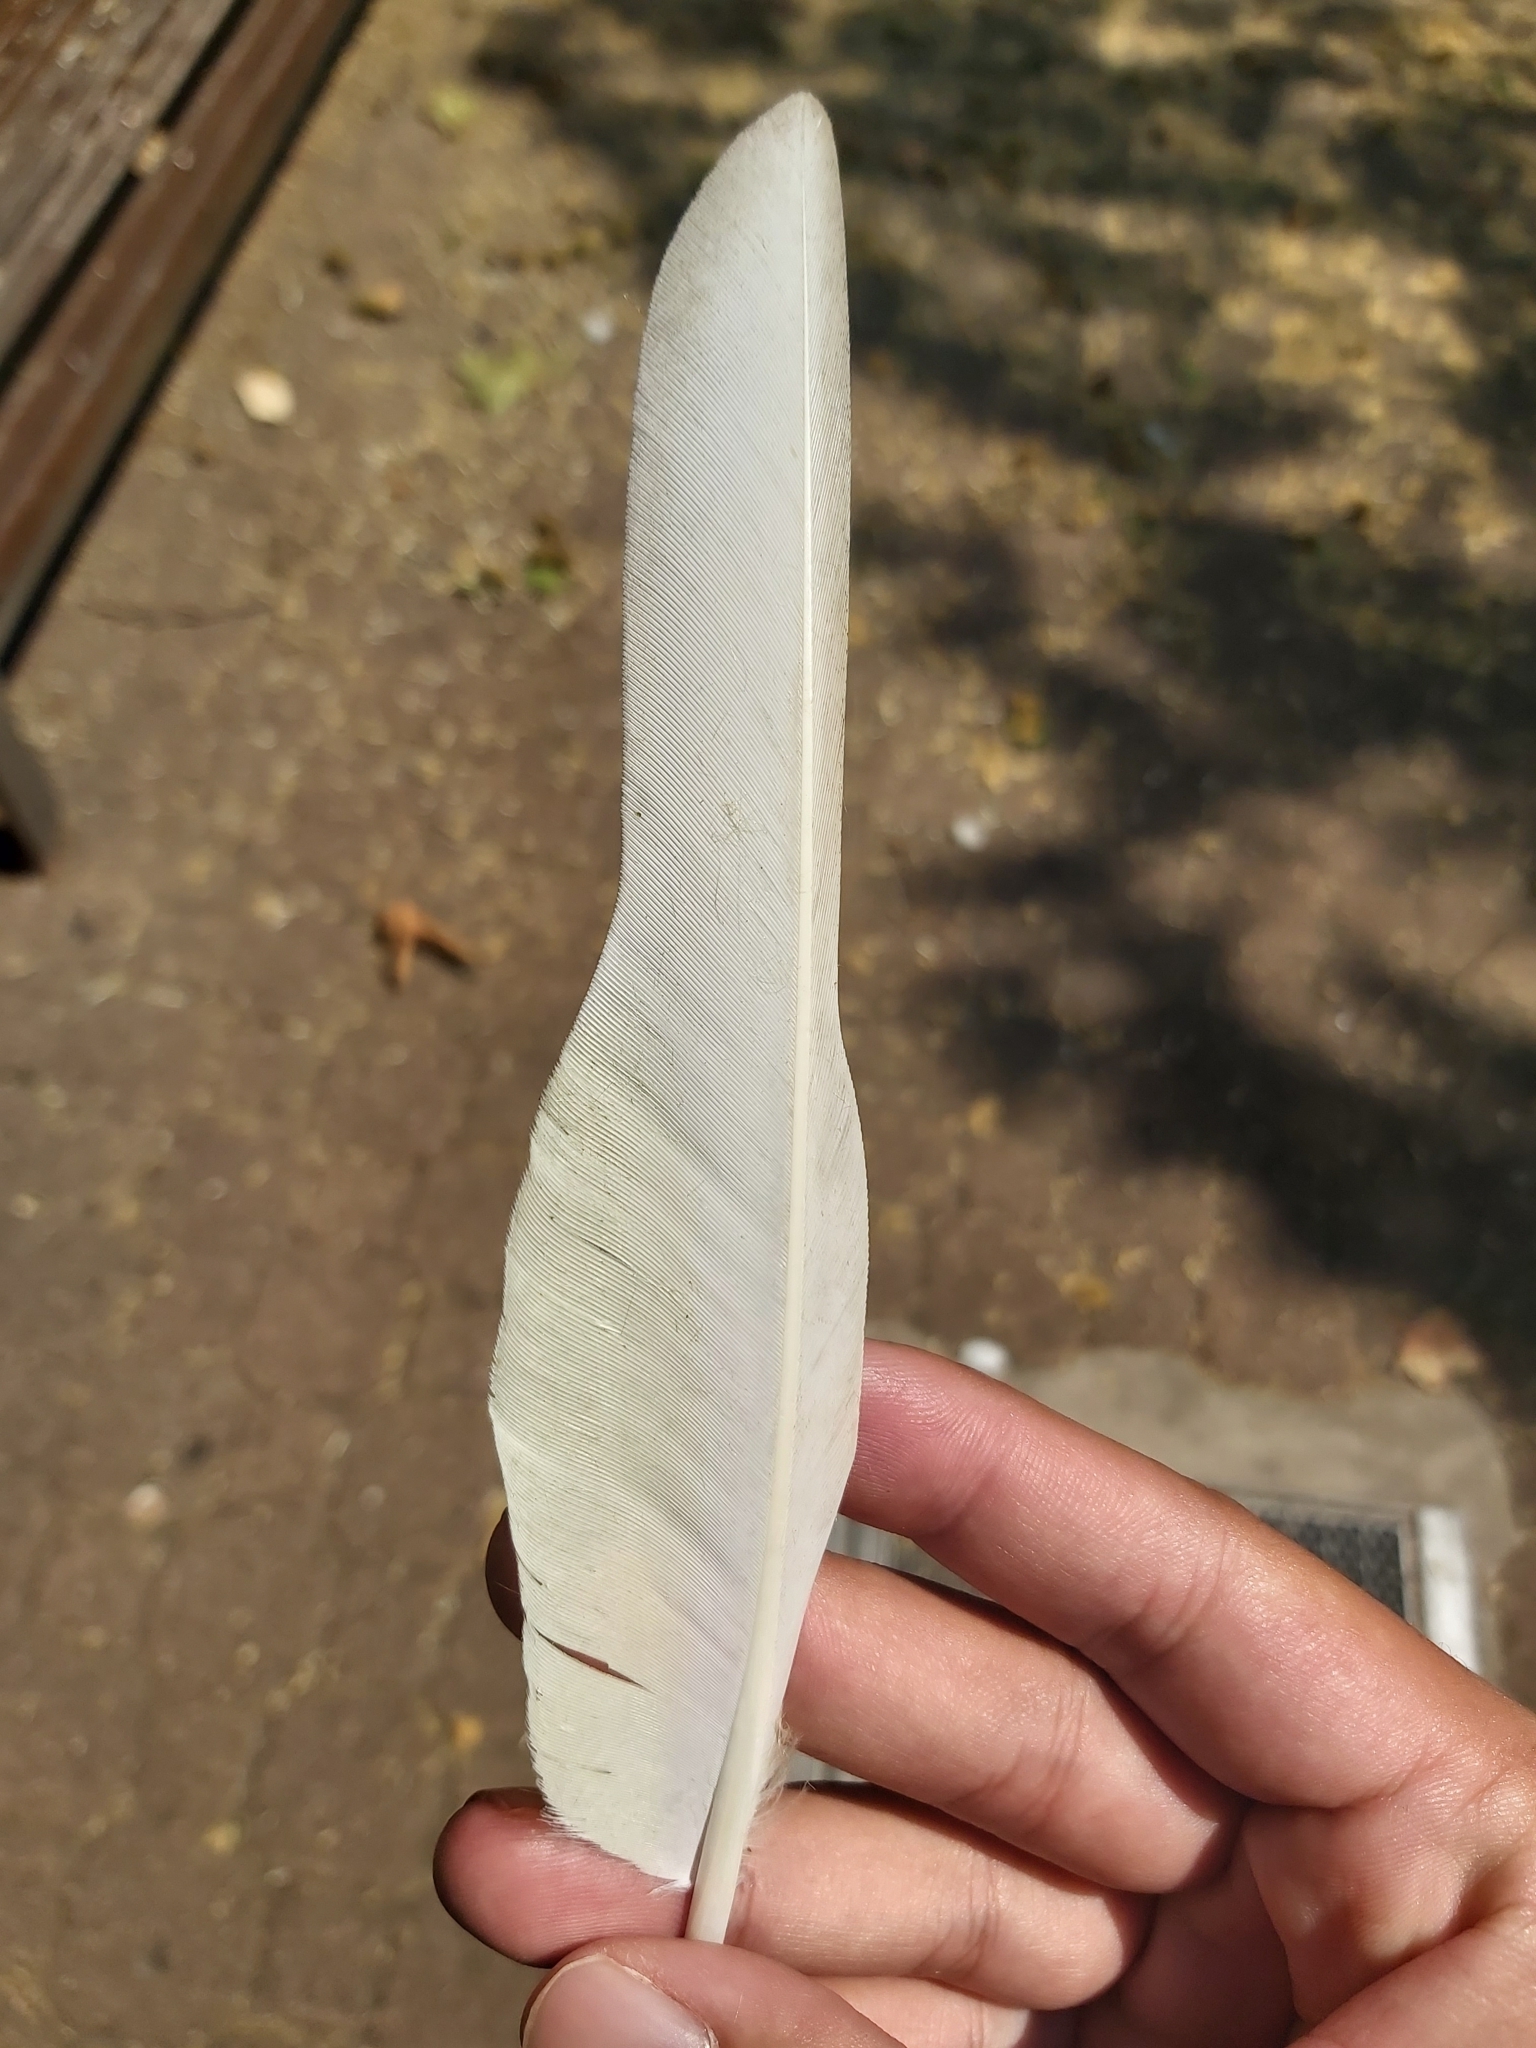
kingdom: Animalia
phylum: Chordata
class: Aves
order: Psittaciformes
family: Psittacidae
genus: Cacatua
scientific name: Cacatua sanguinea
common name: Little corella
